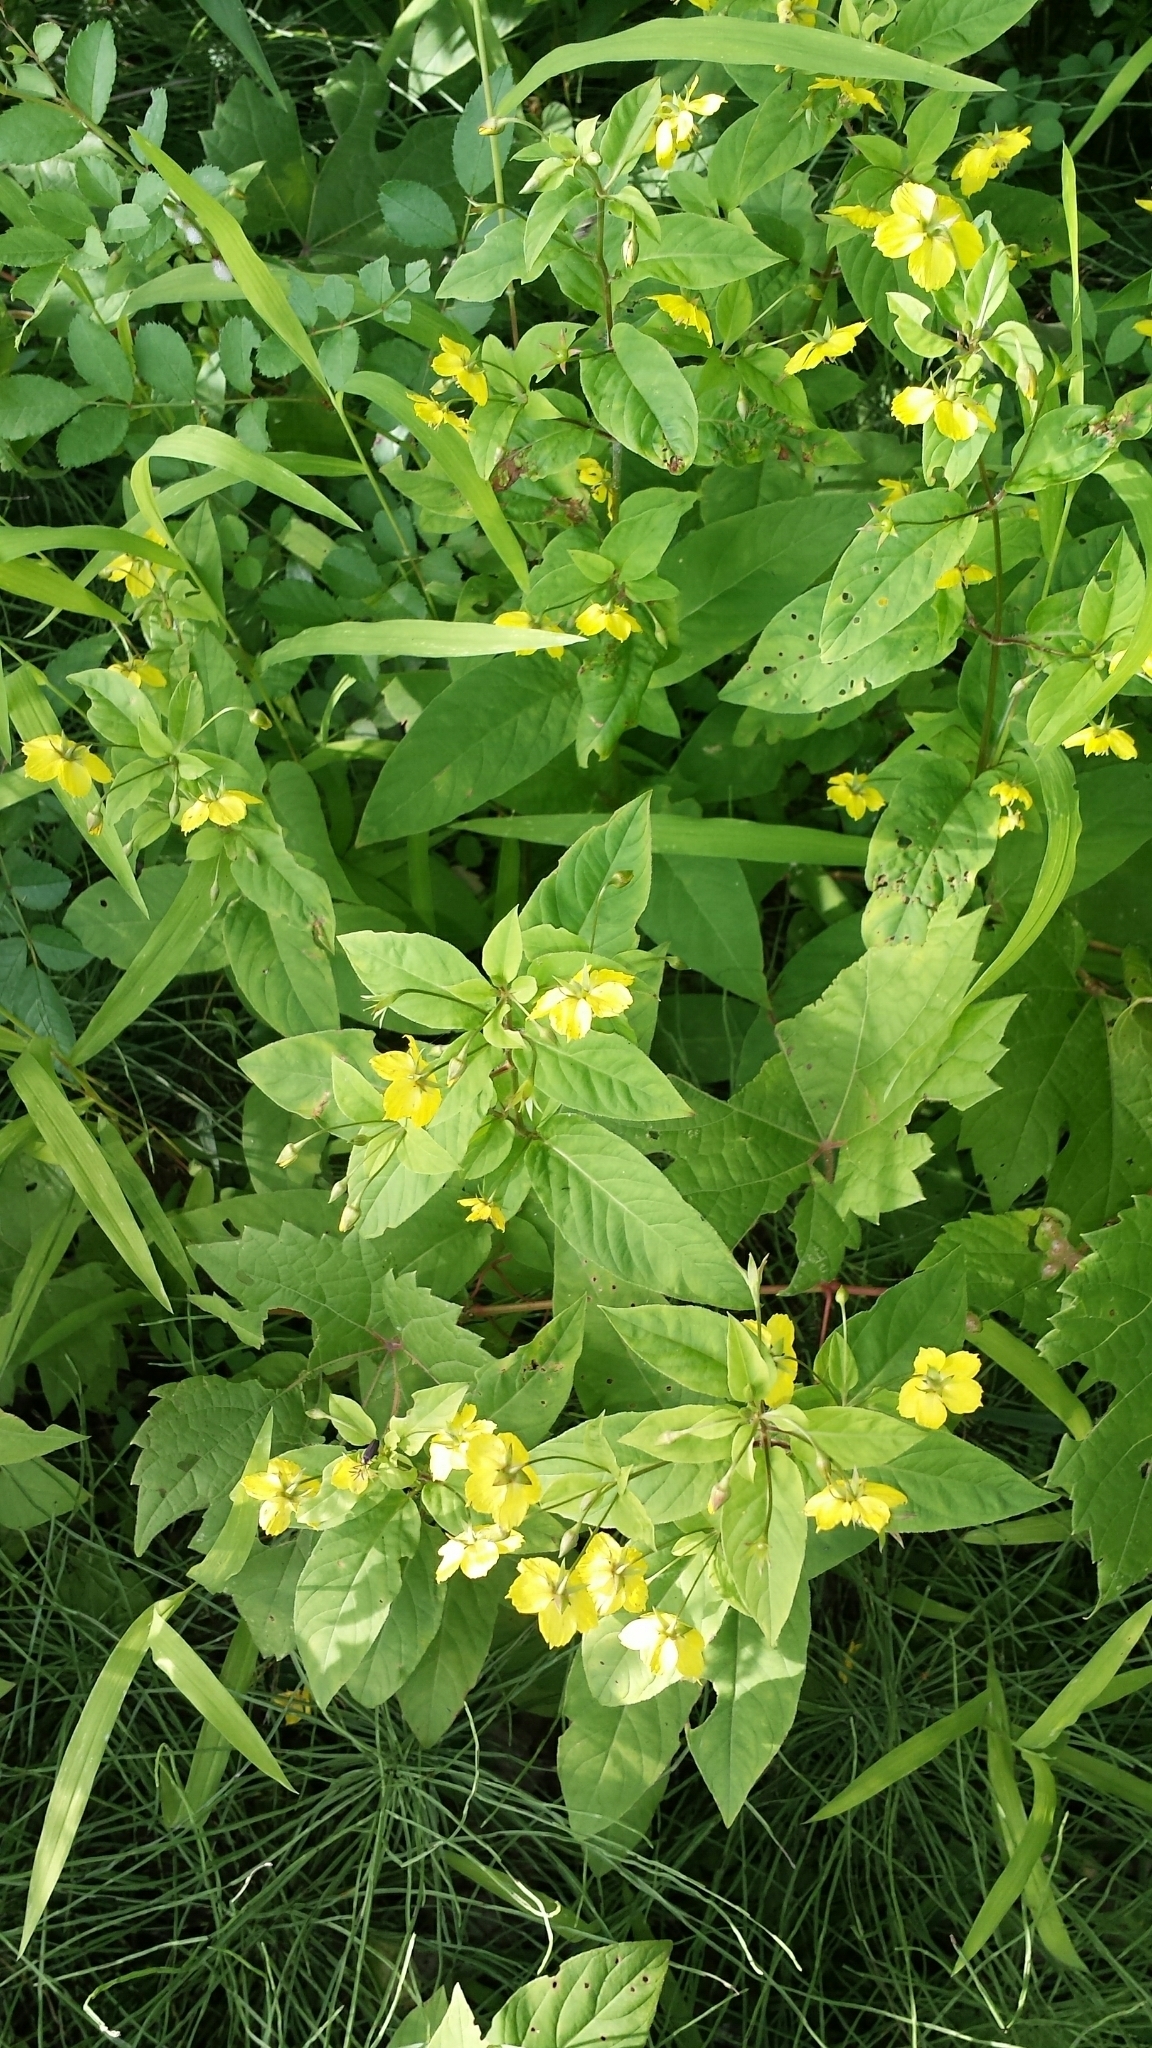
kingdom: Plantae
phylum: Tracheophyta
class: Magnoliopsida
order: Ericales
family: Primulaceae
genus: Lysimachia
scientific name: Lysimachia ciliata
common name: Fringed loosestrife
